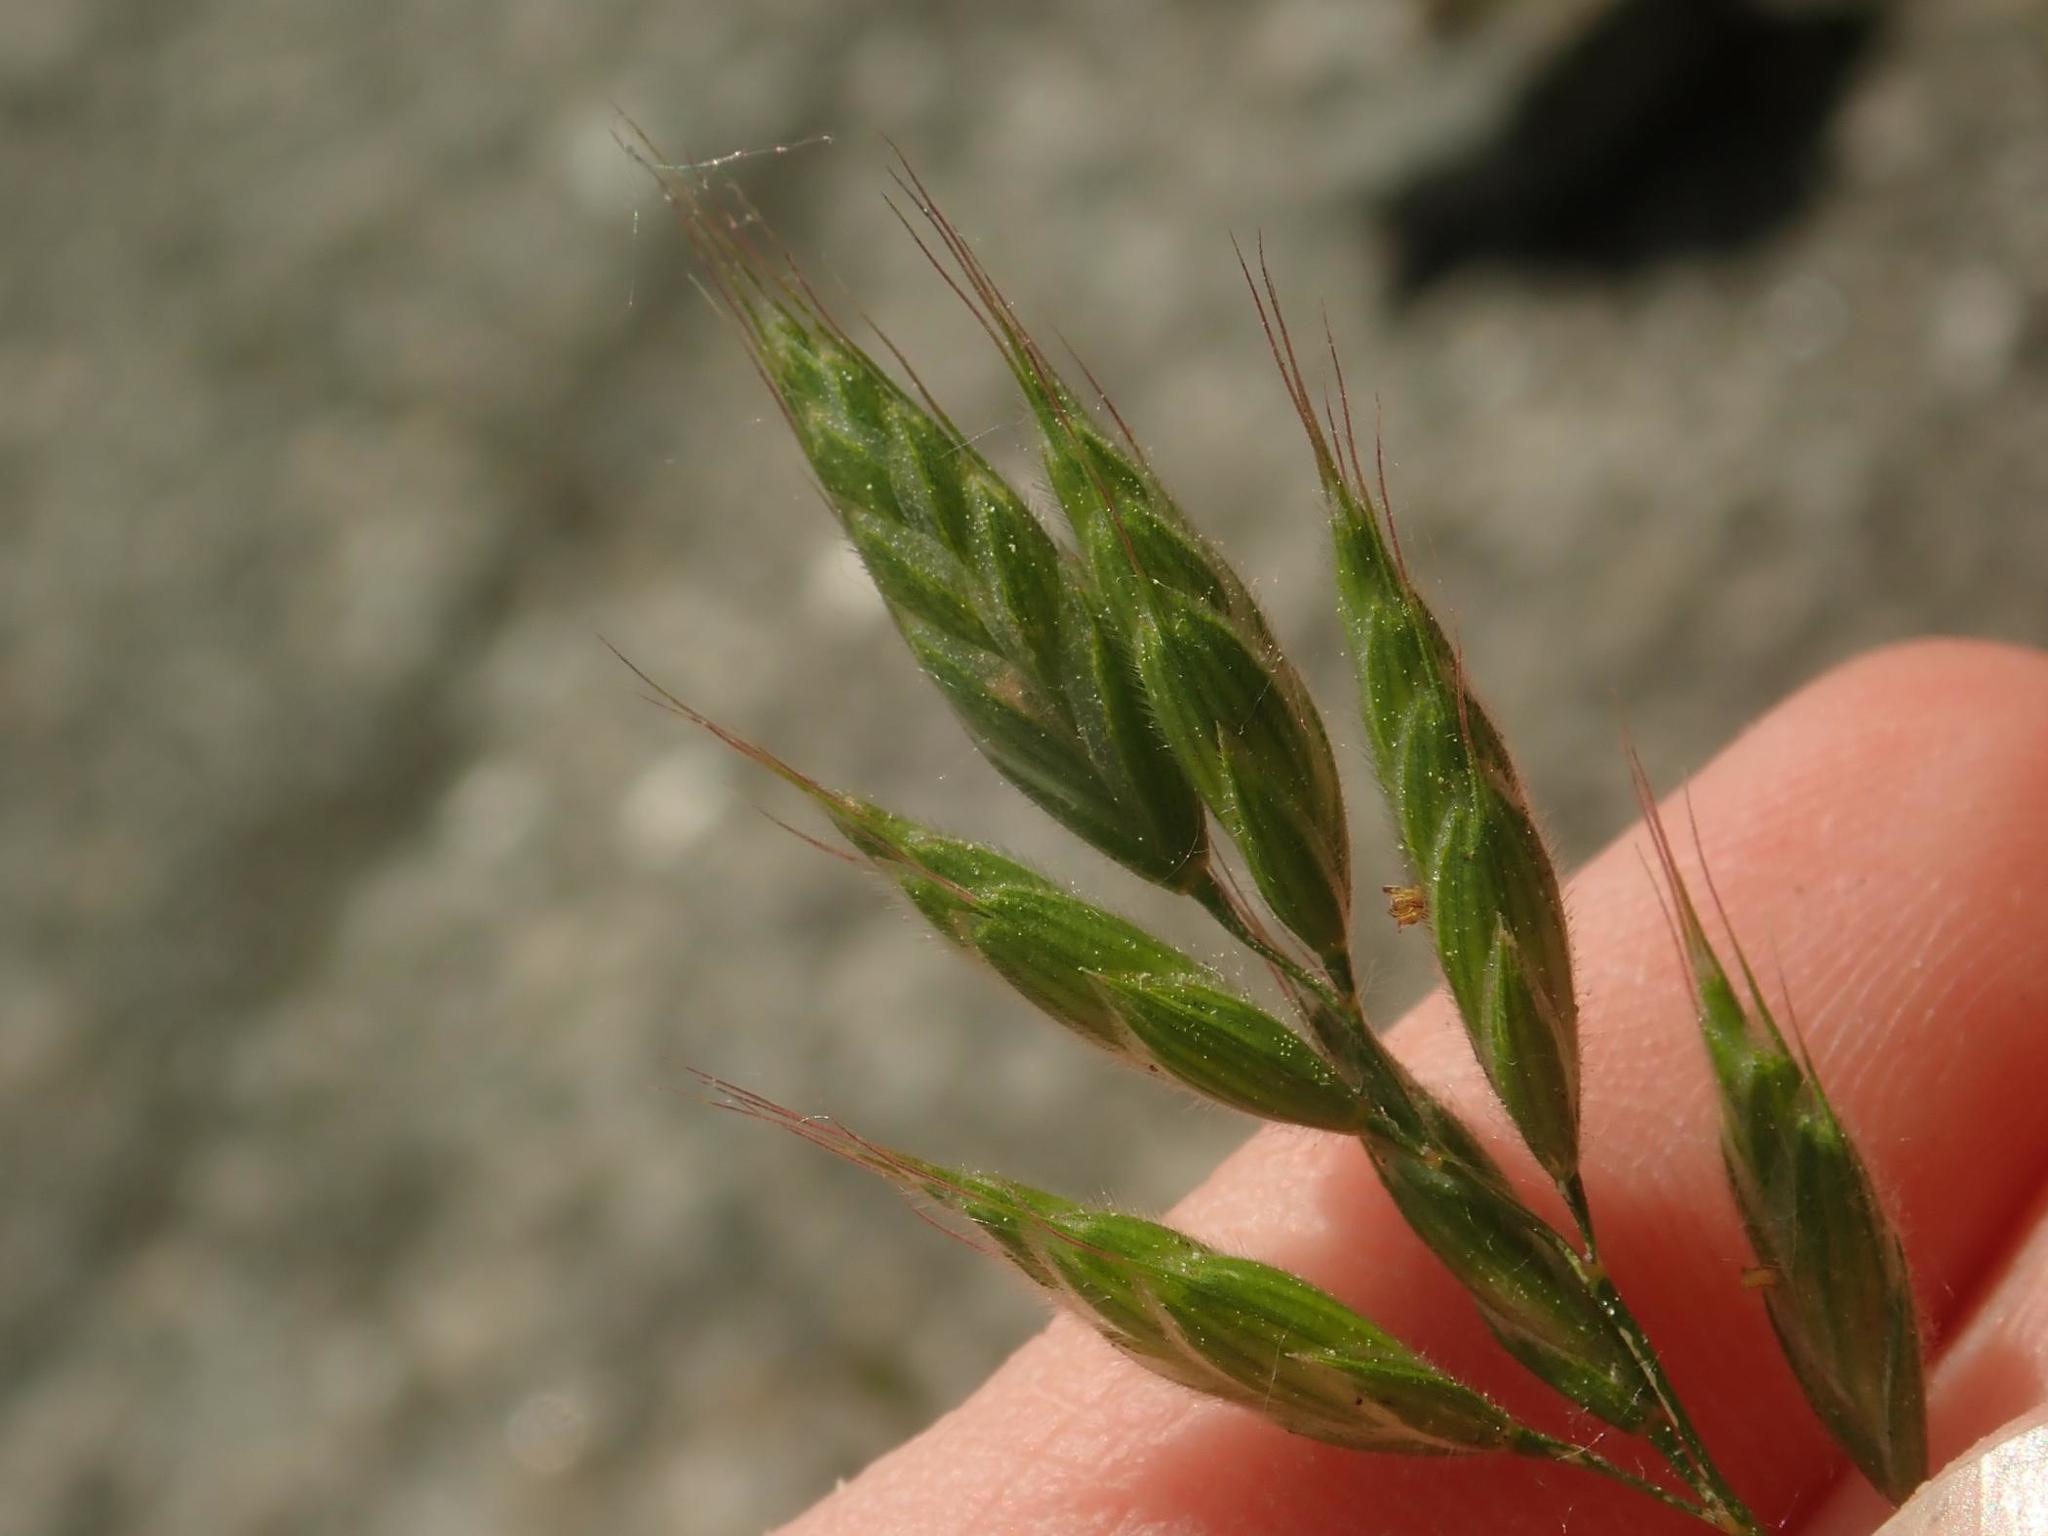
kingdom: Plantae
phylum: Tracheophyta
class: Liliopsida
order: Poales
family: Poaceae
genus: Bromus
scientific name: Bromus hordeaceus
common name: Soft brome
